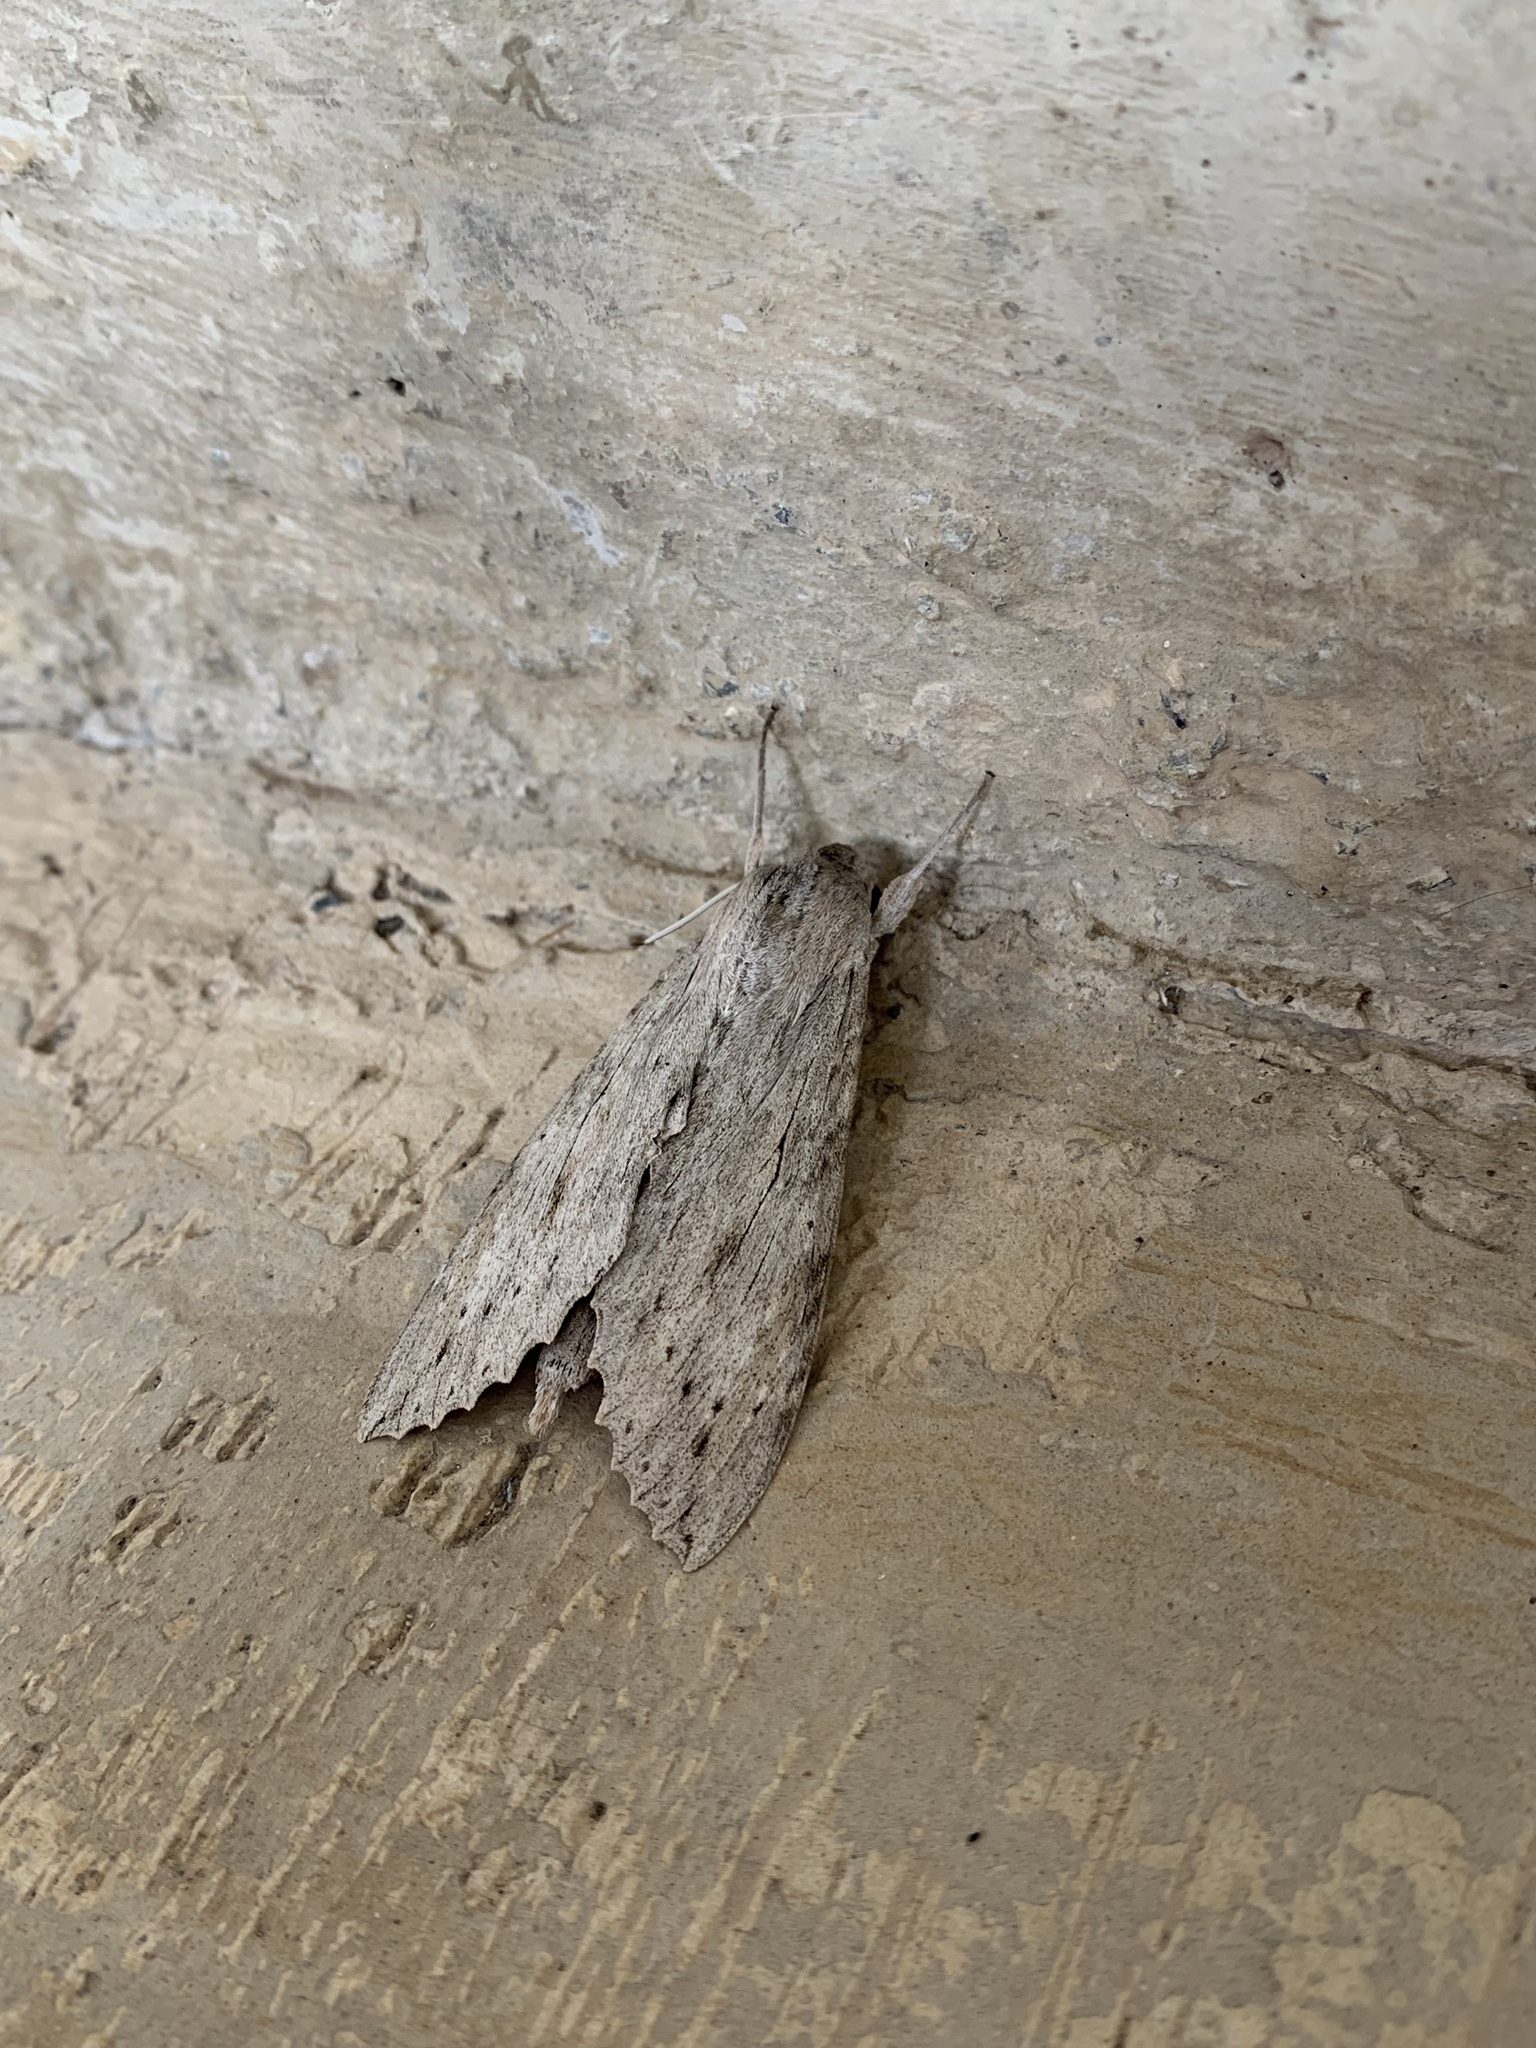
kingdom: Animalia
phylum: Arthropoda
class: Insecta
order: Lepidoptera
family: Sphingidae
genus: Erinnyis
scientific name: Erinnyis ello
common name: Ello sphinx
